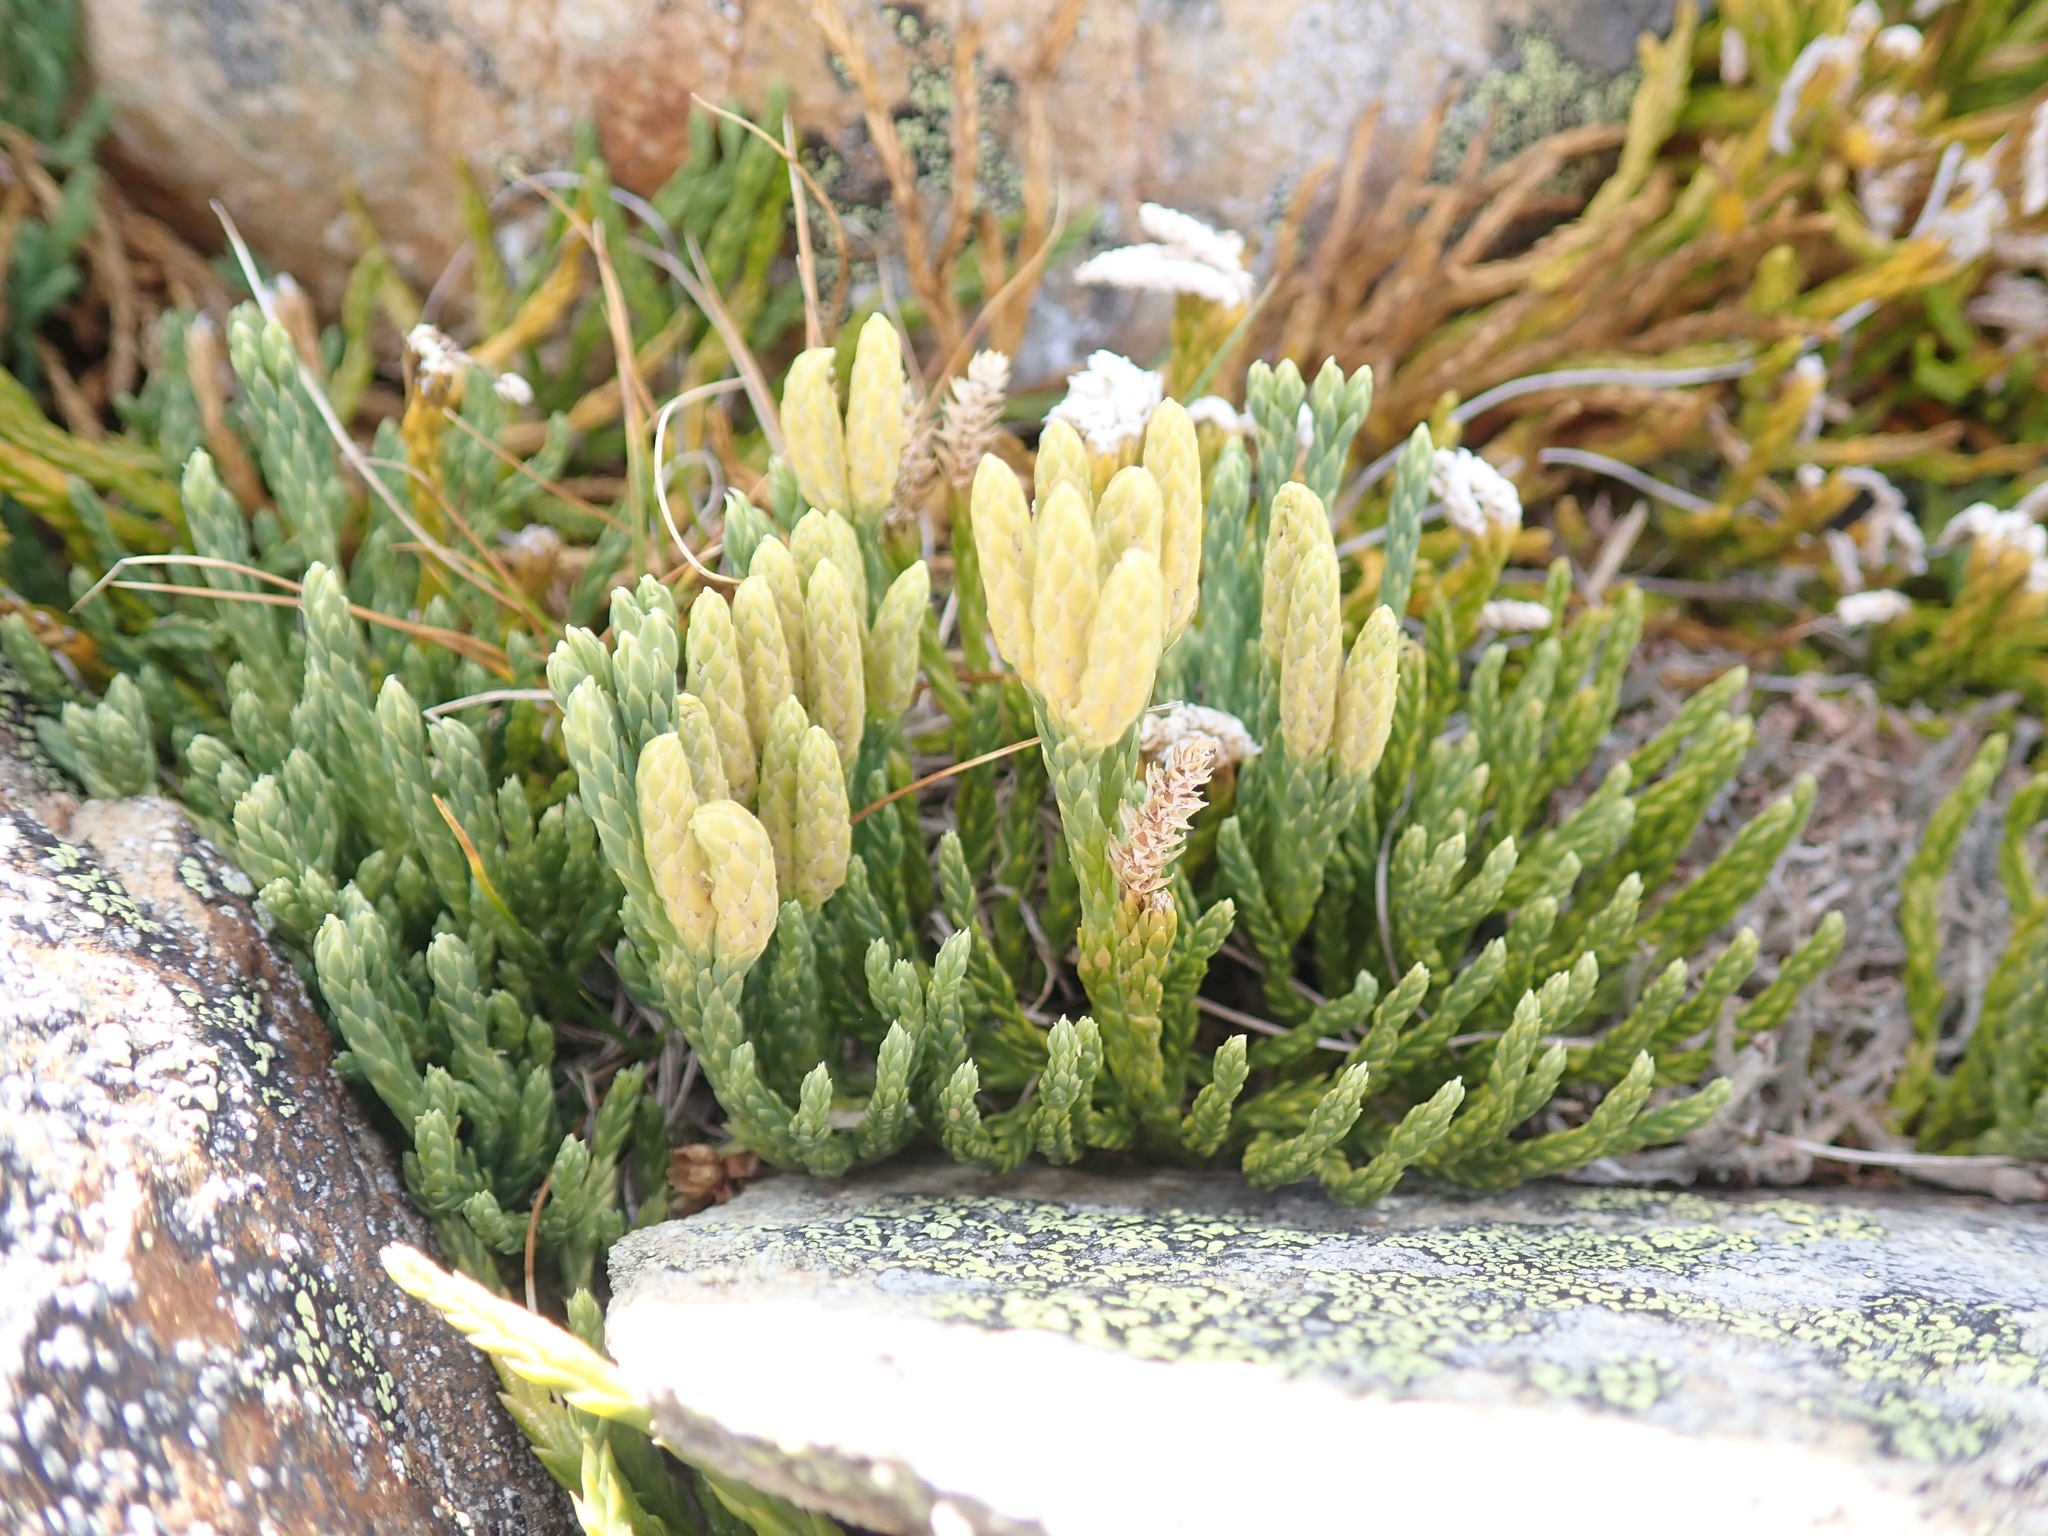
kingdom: Plantae
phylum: Tracheophyta
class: Lycopodiopsida
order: Lycopodiales
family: Lycopodiaceae
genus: Diphasiastrum
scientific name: Diphasiastrum alpinum
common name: Alpine clubmoss
